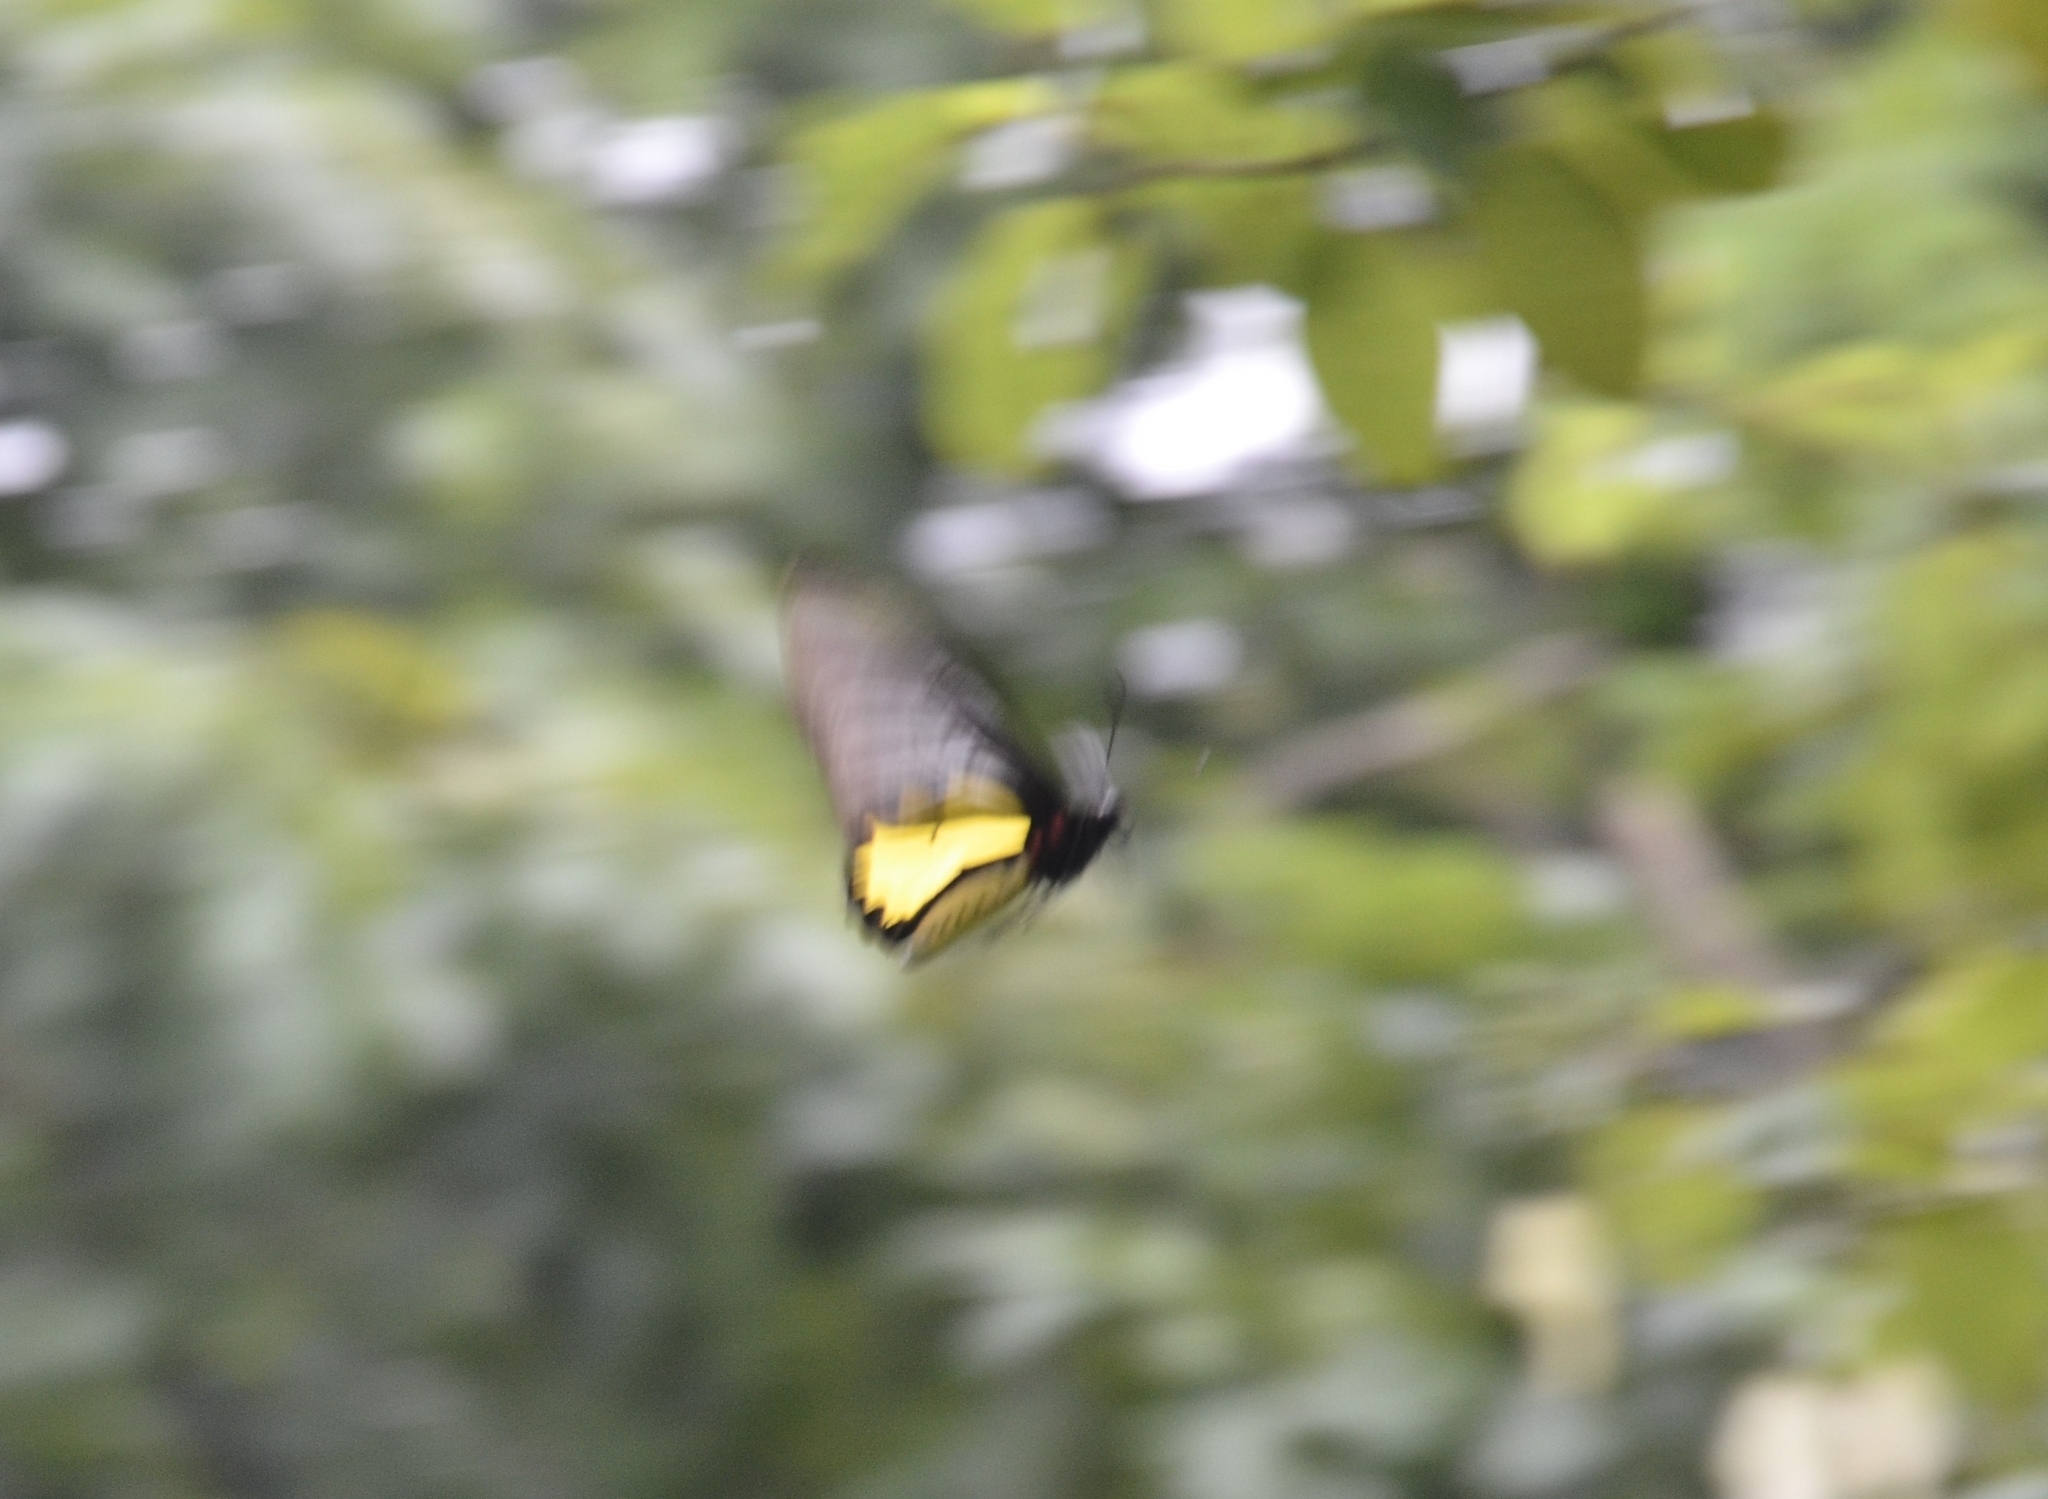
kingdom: Animalia
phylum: Arthropoda
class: Insecta
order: Lepidoptera
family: Papilionidae
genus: Troides
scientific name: Troides minos
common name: Malabar birdwing
